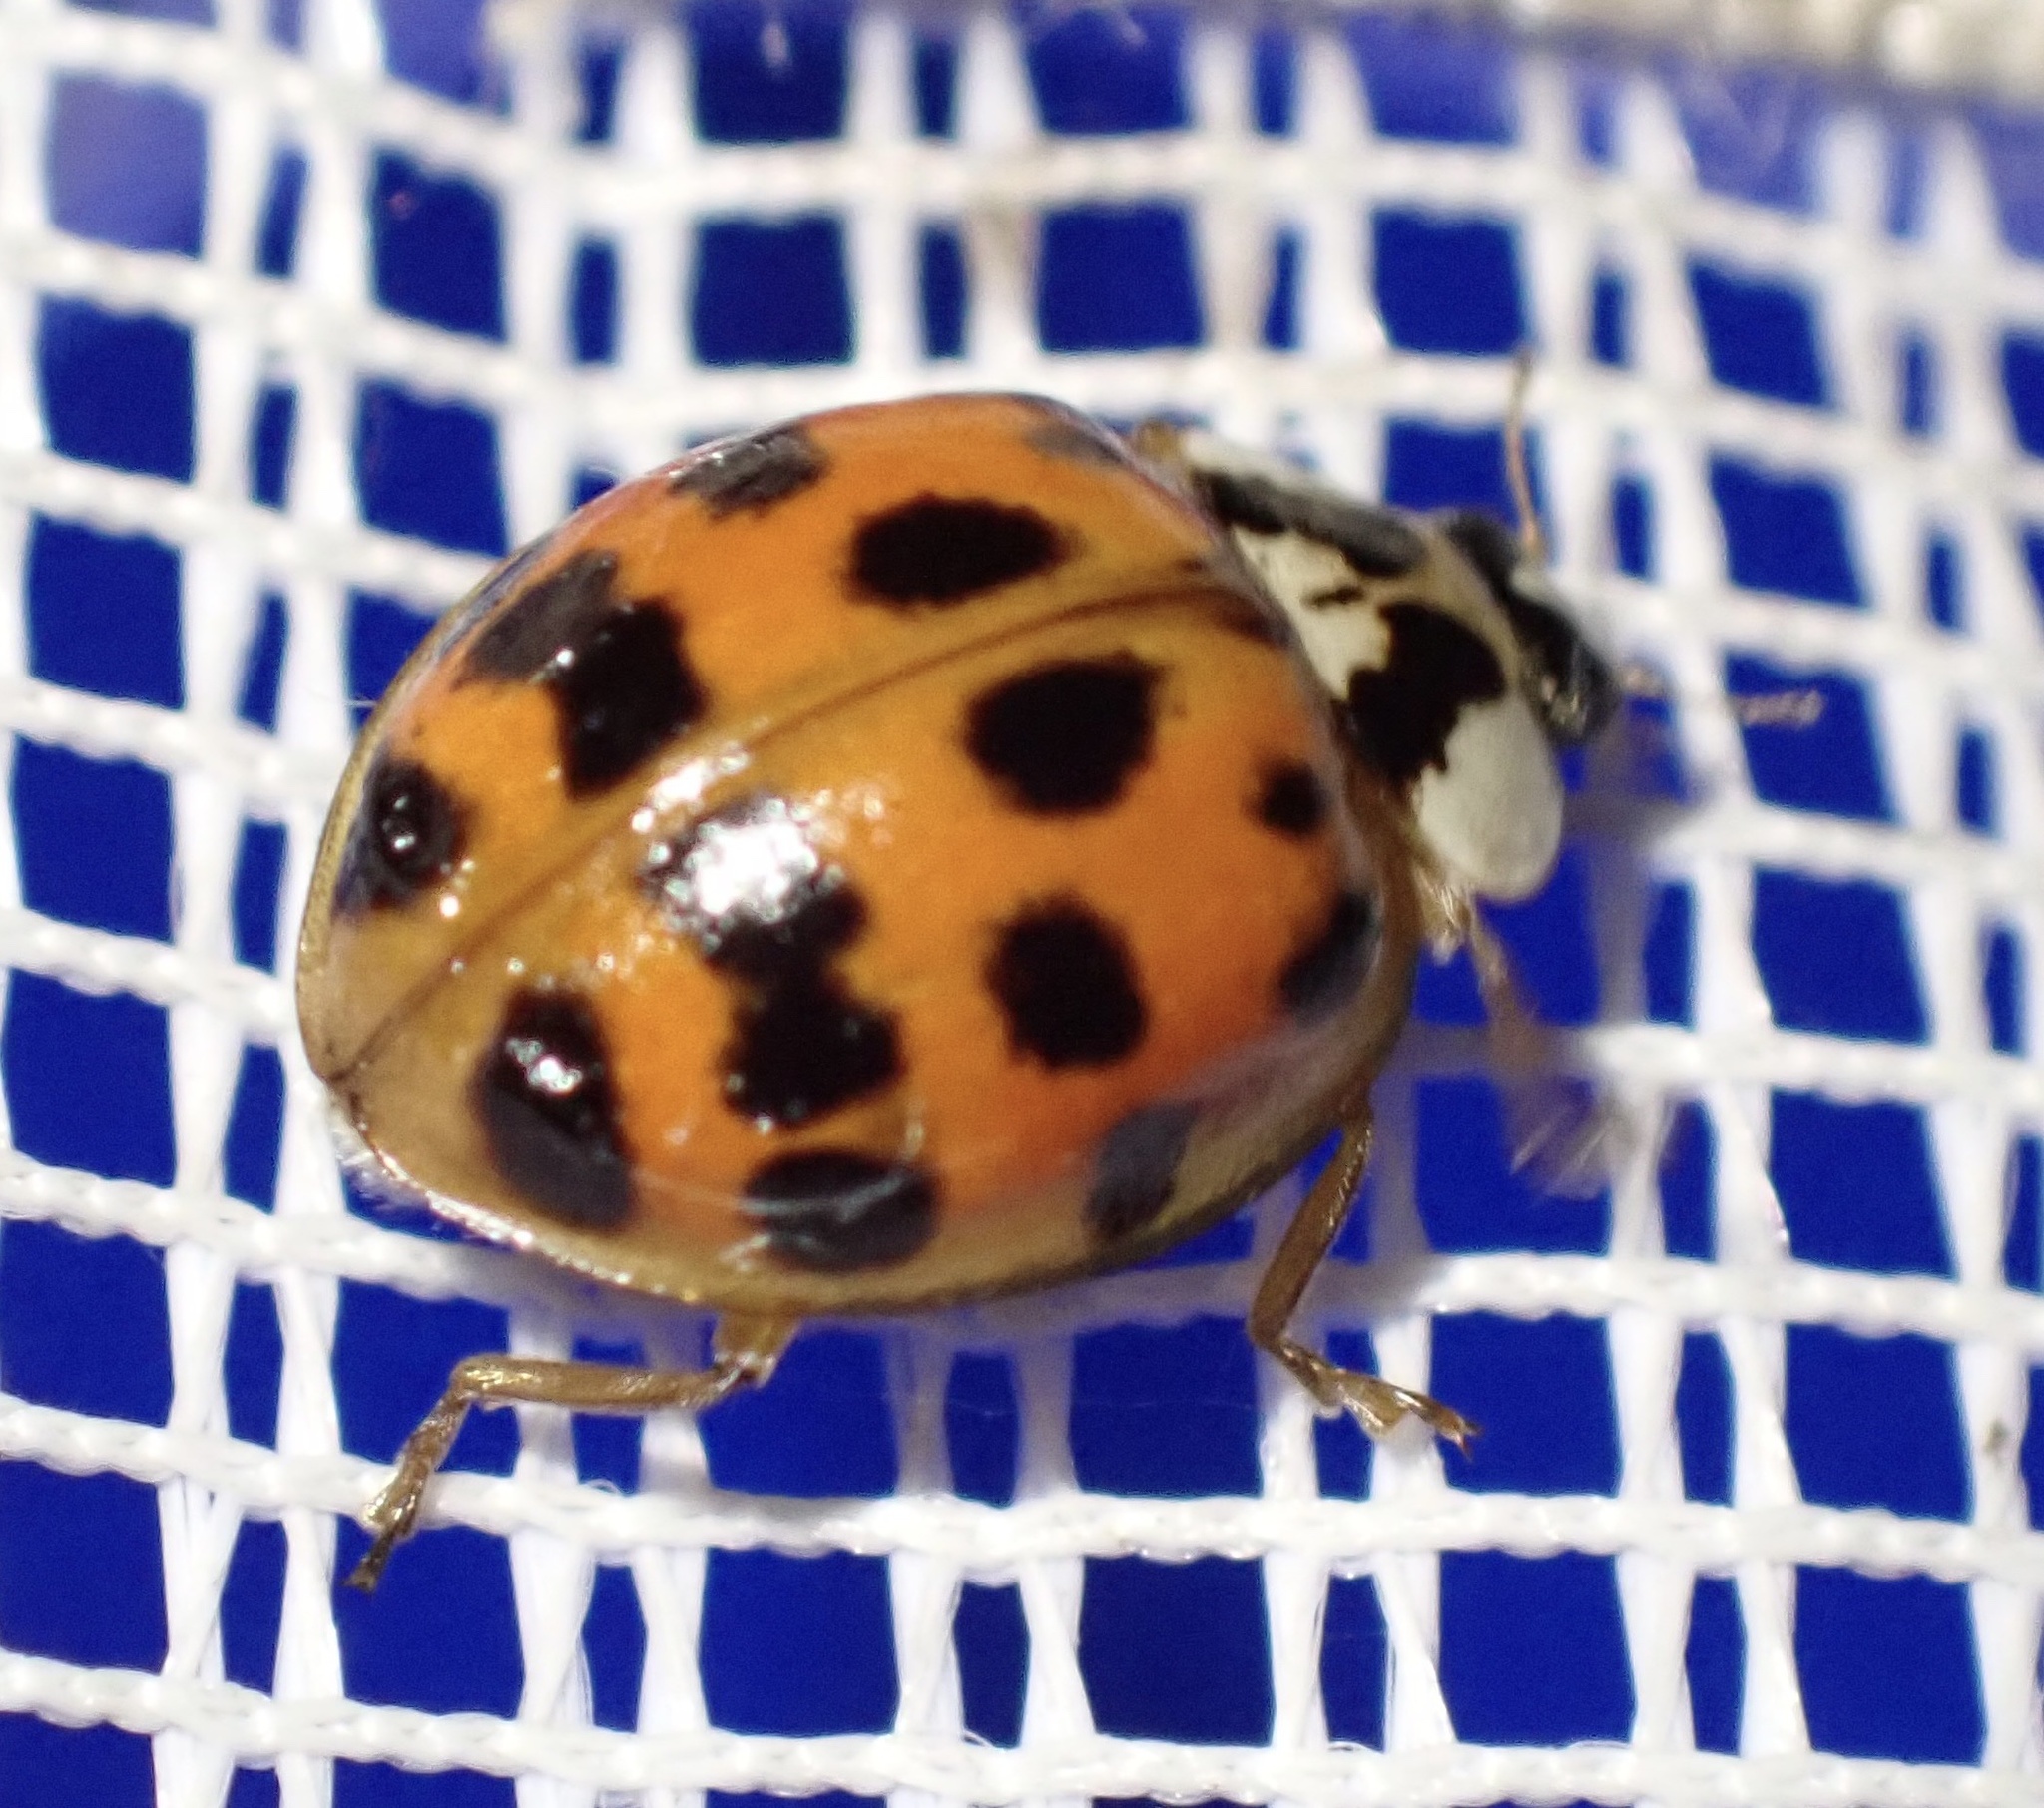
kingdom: Animalia
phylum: Arthropoda
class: Insecta
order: Coleoptera
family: Coccinellidae
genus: Harmonia
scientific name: Harmonia axyridis
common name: Harlequin ladybird
